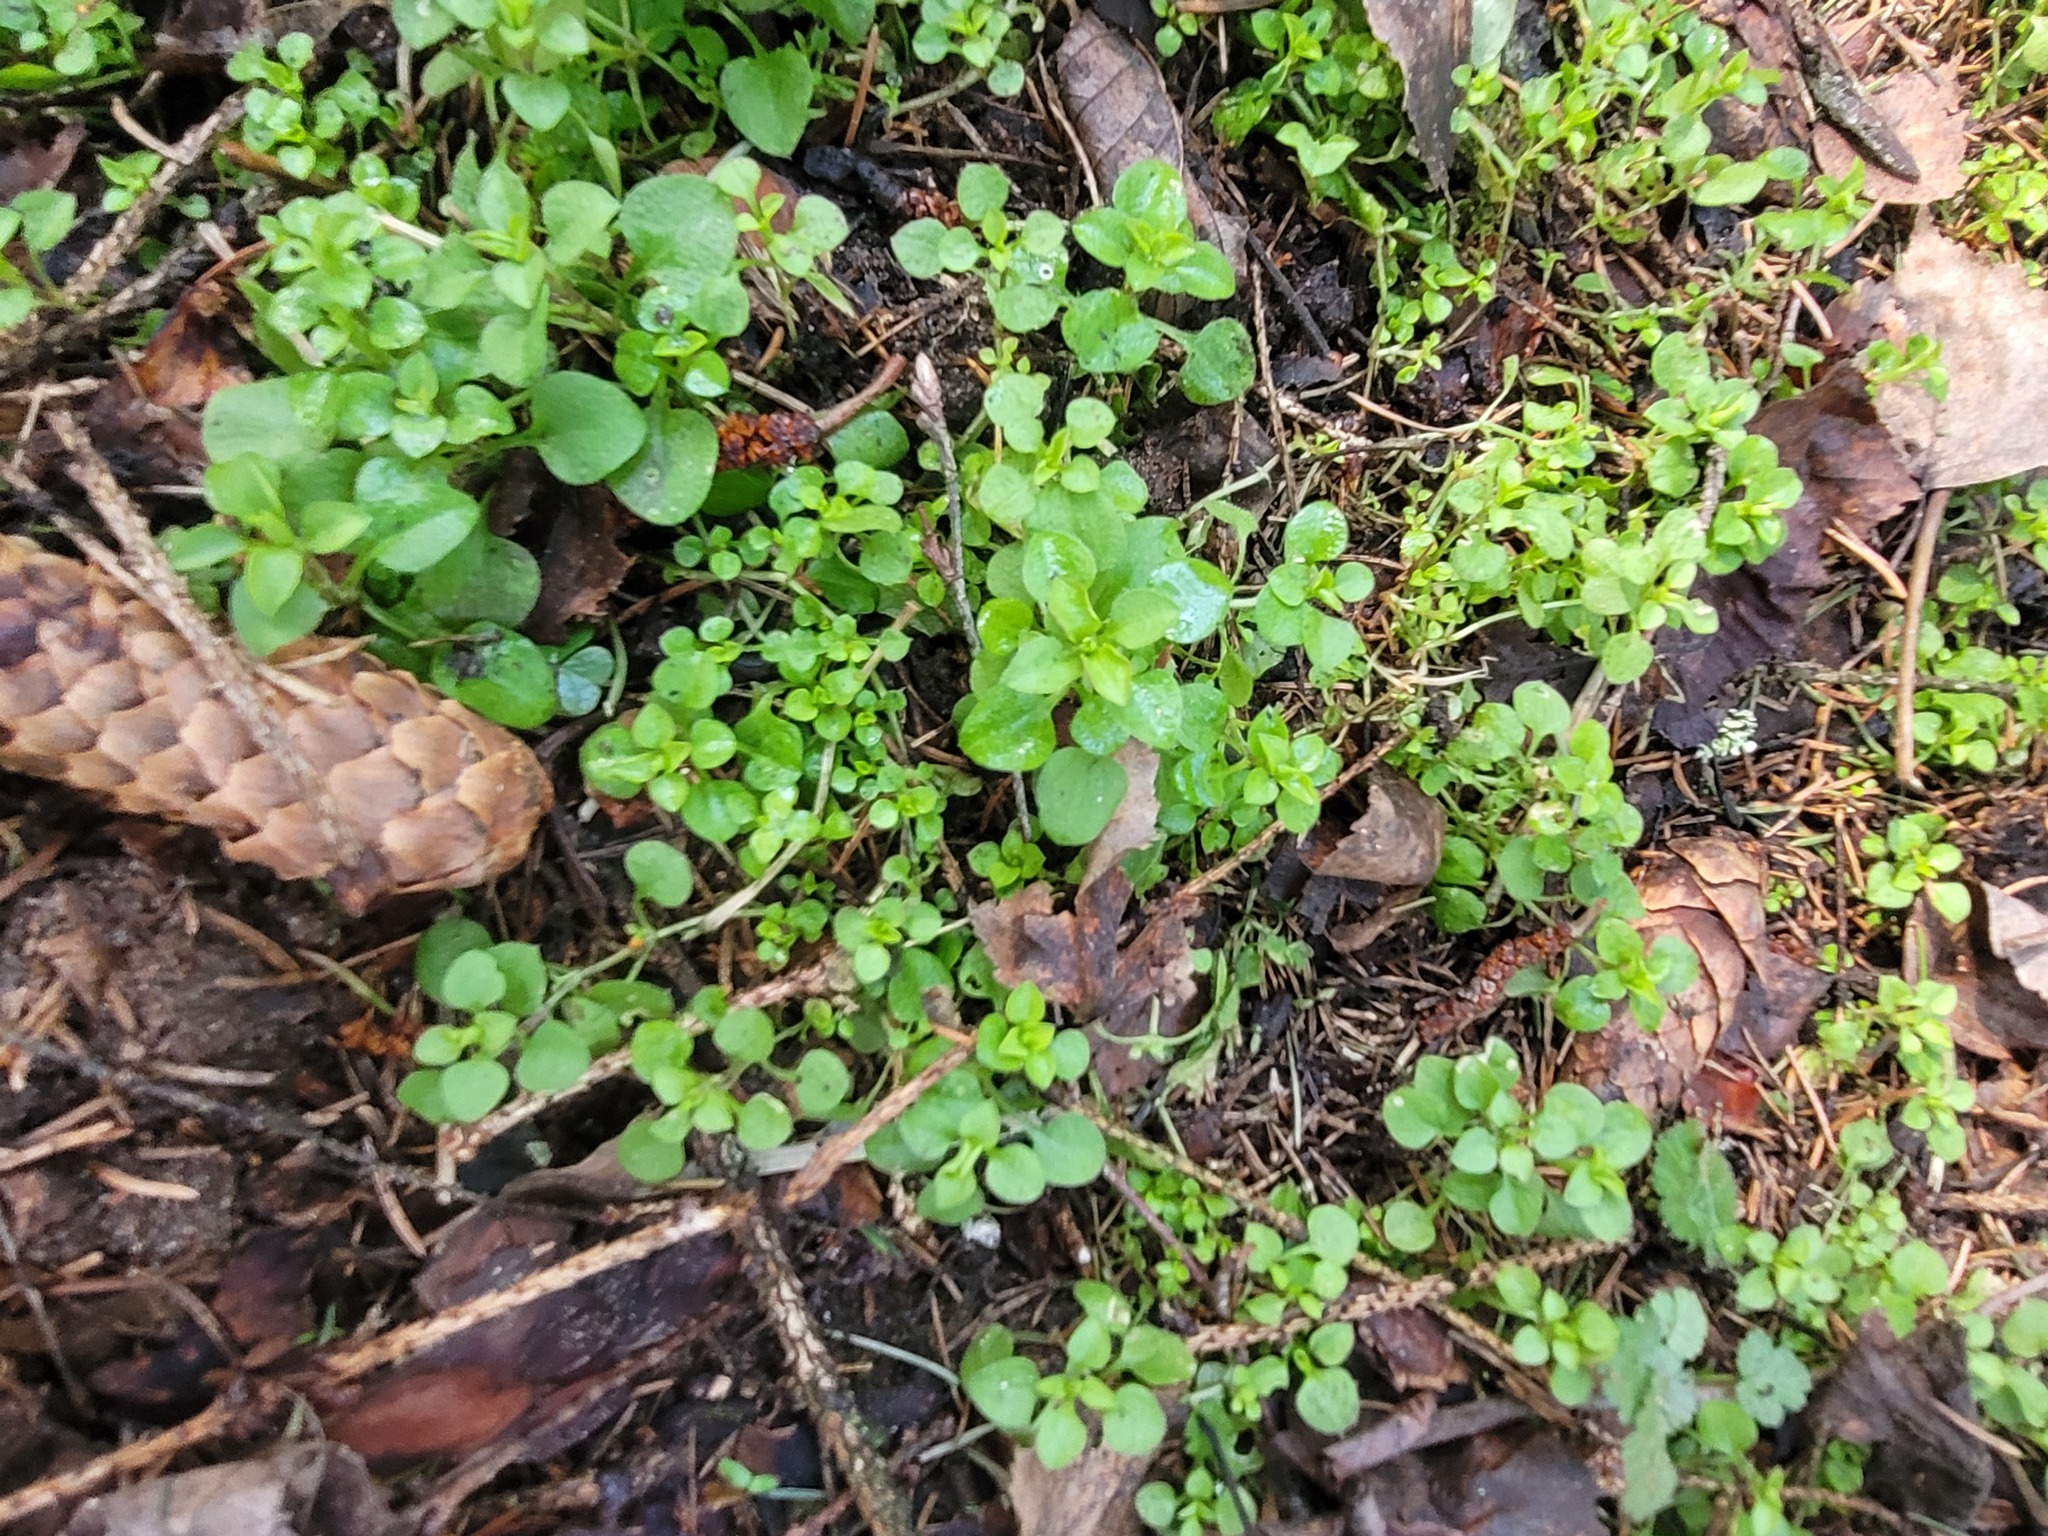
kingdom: Plantae
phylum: Tracheophyta
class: Magnoliopsida
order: Caryophyllales
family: Caryophyllaceae
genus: Moehringia
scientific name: Moehringia trinervia
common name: Three-nerved sandwort
